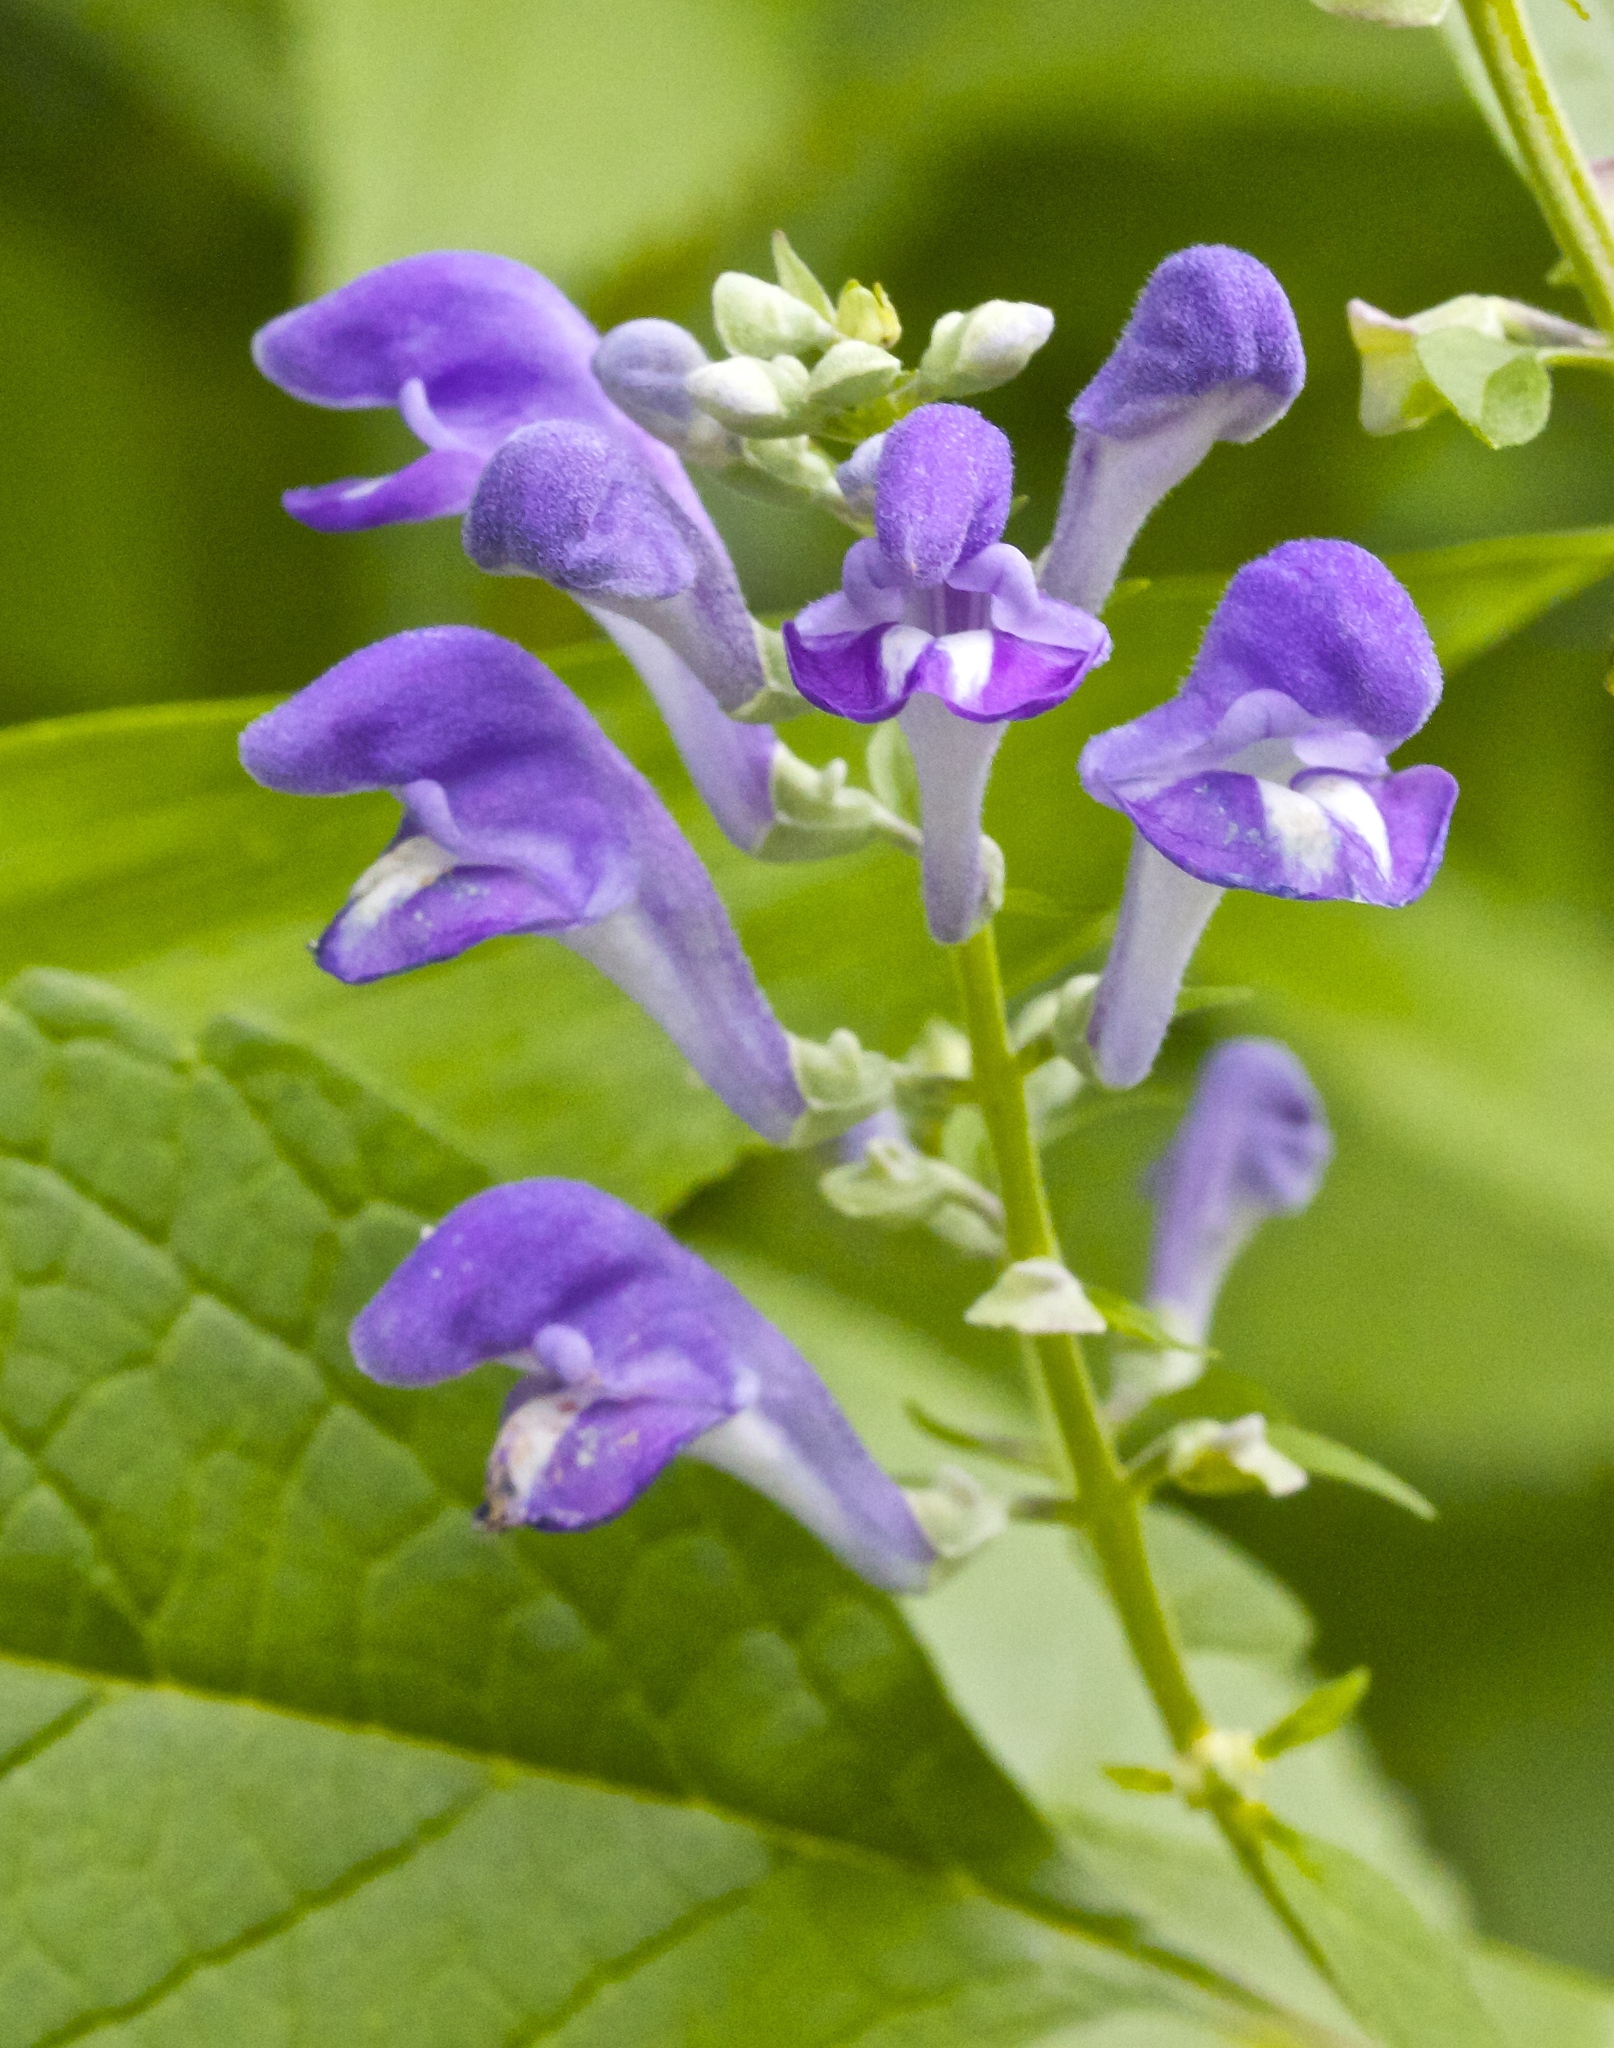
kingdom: Plantae
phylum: Tracheophyta
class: Magnoliopsida
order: Lamiales
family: Lamiaceae
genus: Scutellaria
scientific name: Scutellaria incana
